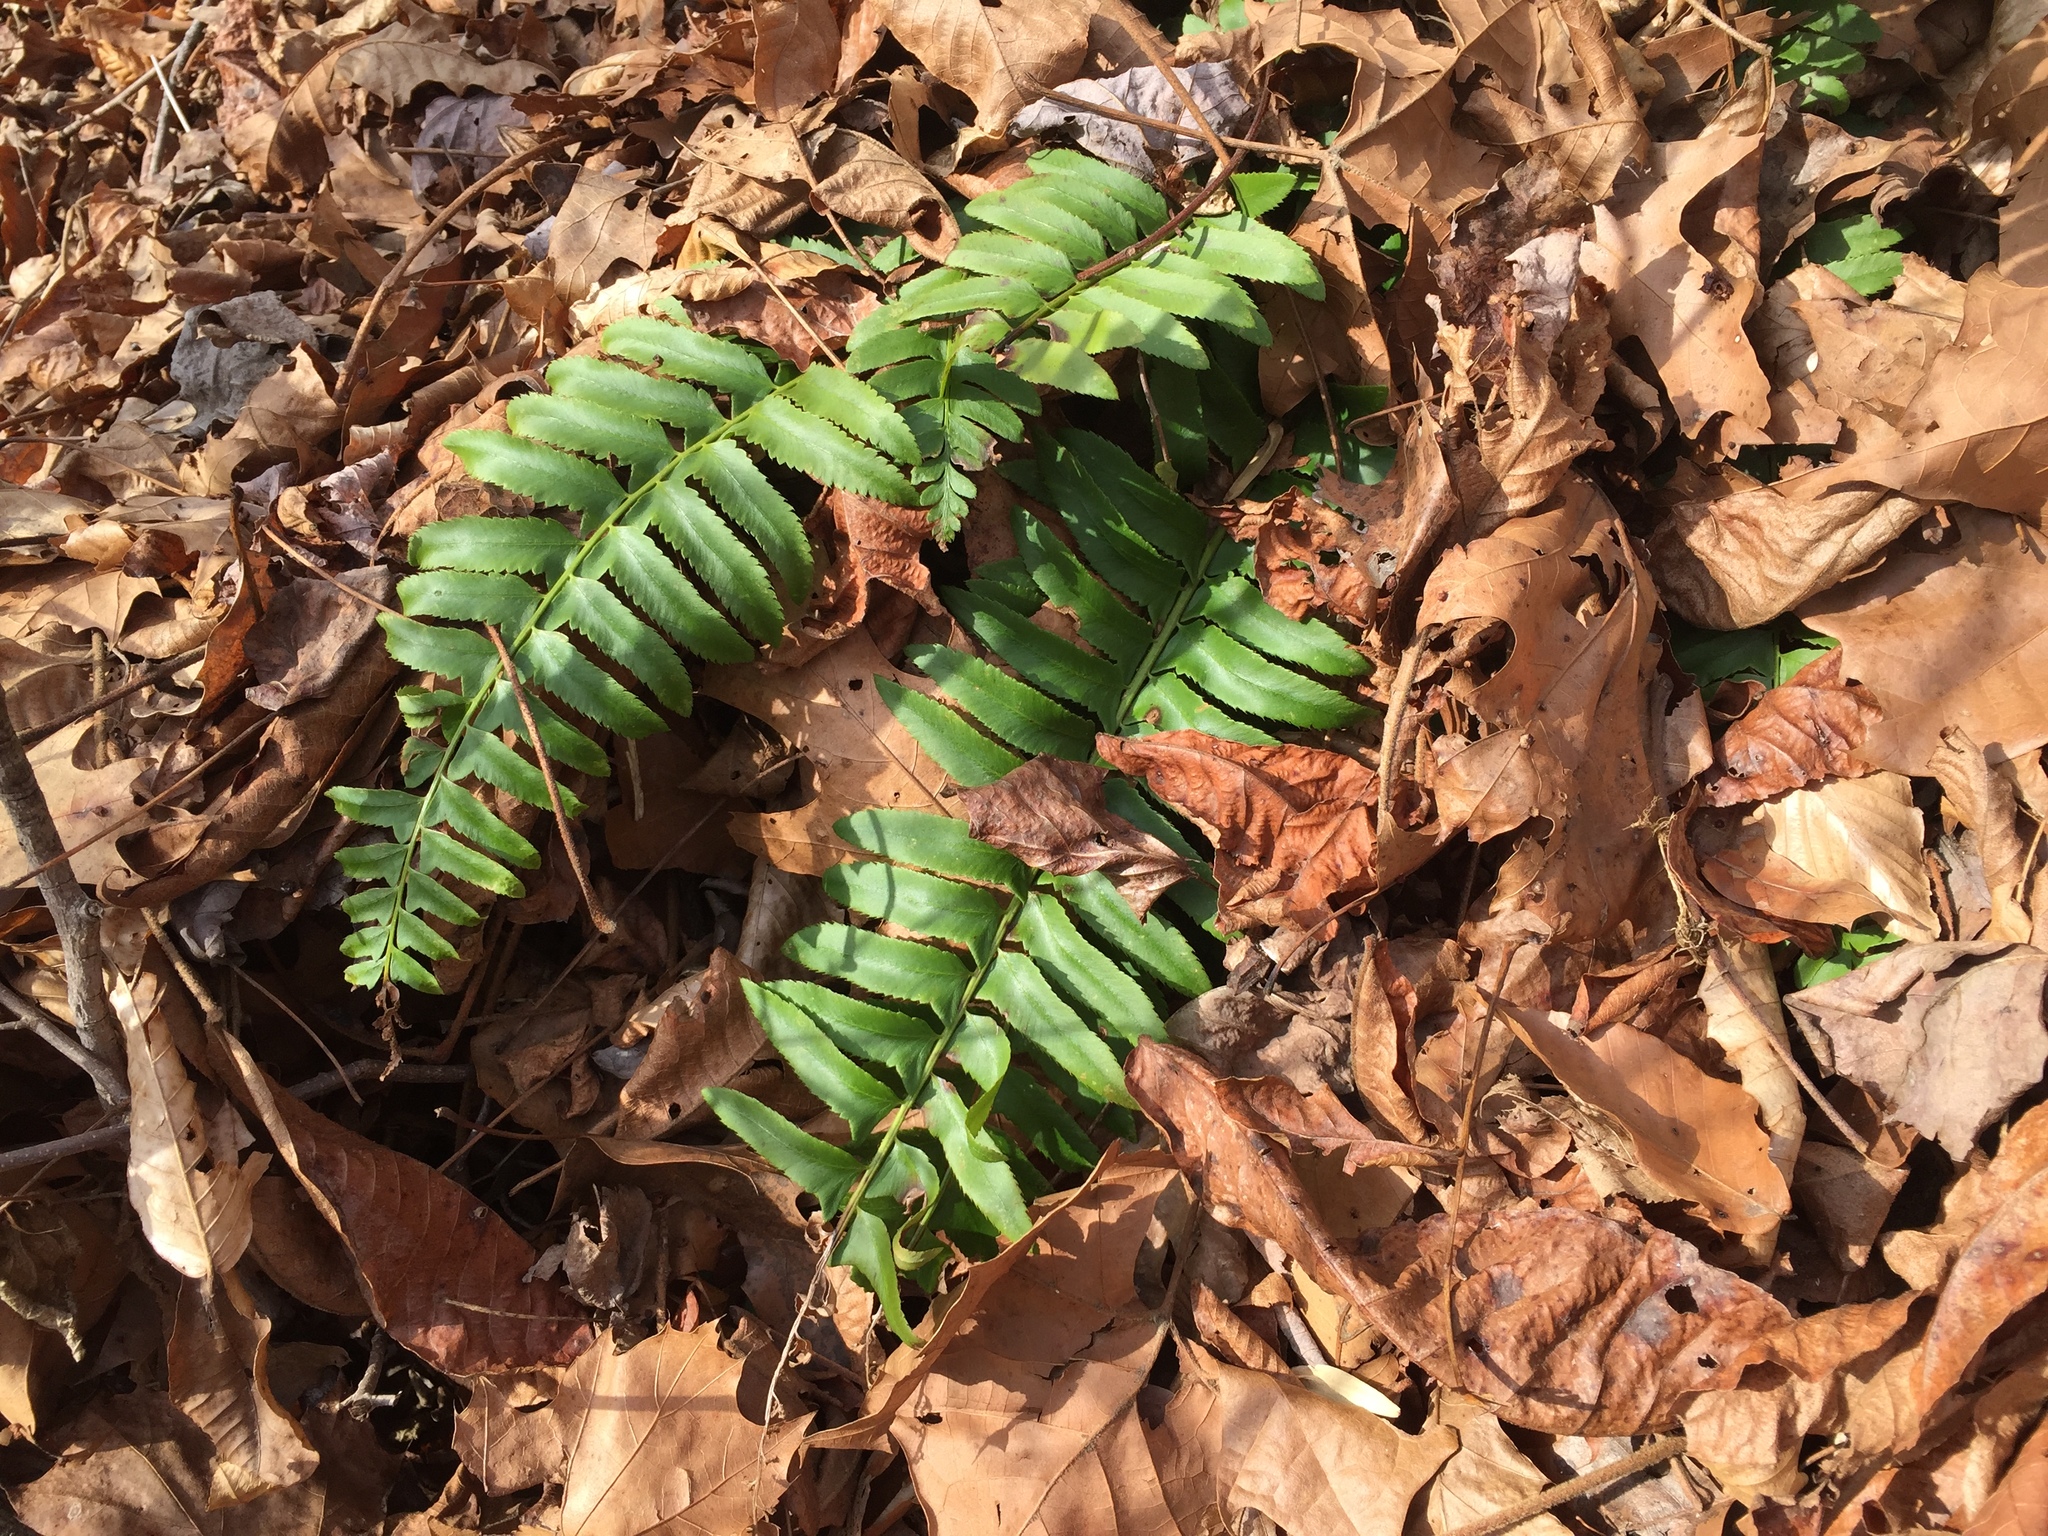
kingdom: Plantae
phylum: Tracheophyta
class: Polypodiopsida
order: Polypodiales
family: Dryopteridaceae
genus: Polystichum
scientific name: Polystichum acrostichoides
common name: Christmas fern
